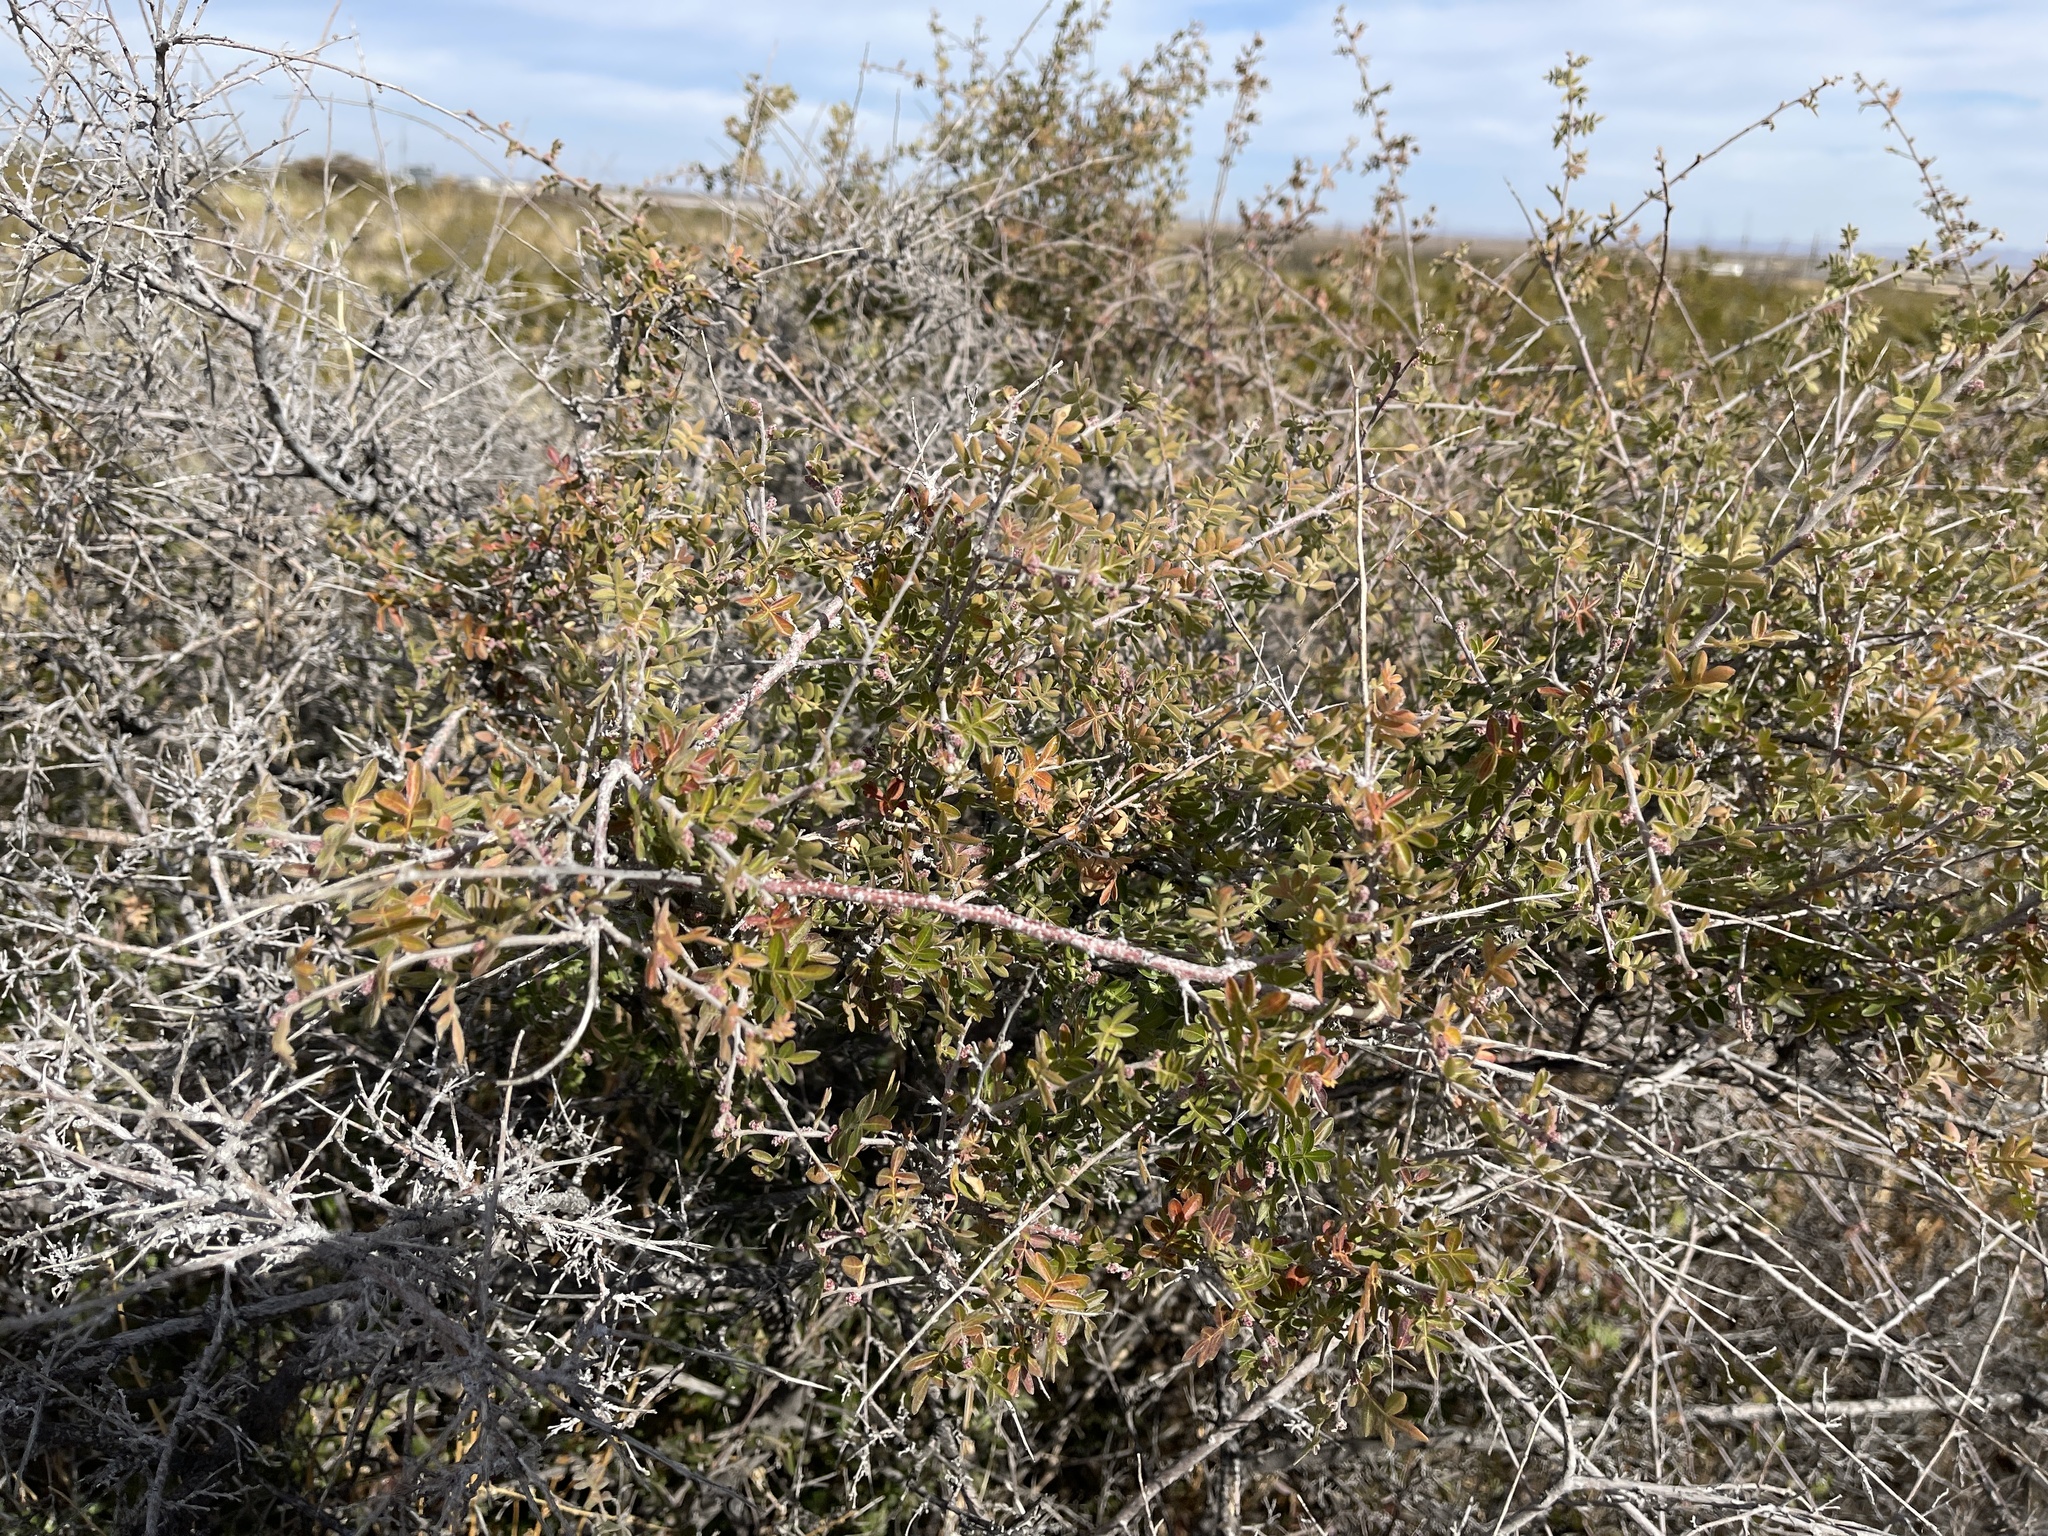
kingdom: Plantae
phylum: Tracheophyta
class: Magnoliopsida
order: Sapindales
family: Anacardiaceae
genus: Rhus
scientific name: Rhus microphylla
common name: Desert sumac
